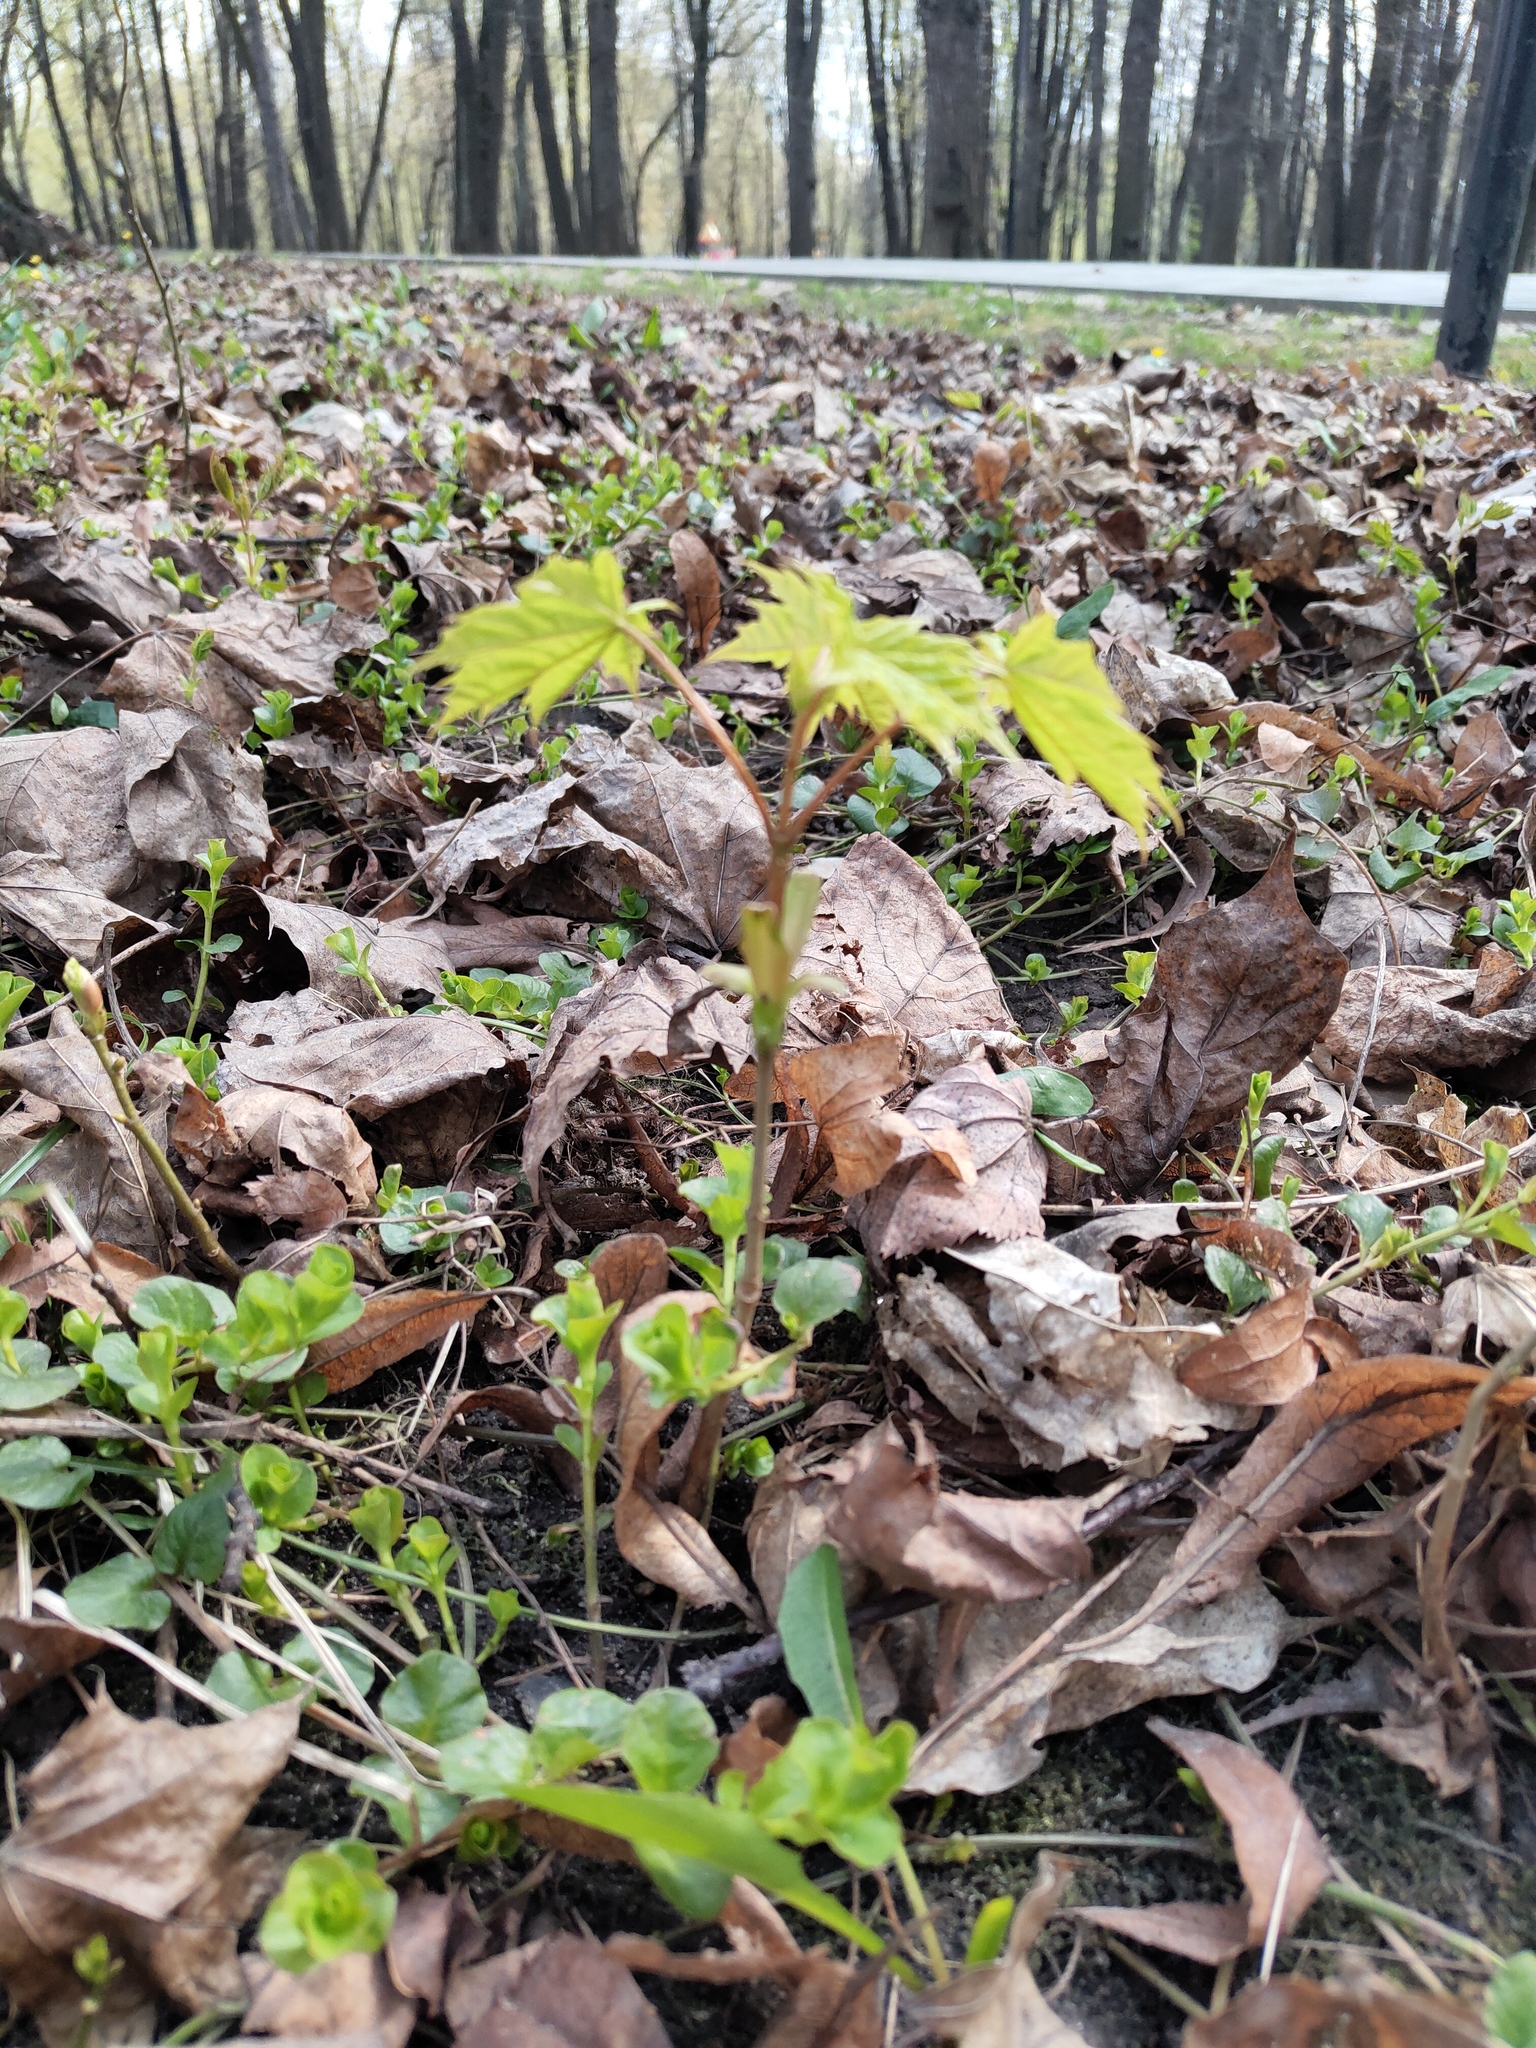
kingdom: Plantae
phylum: Tracheophyta
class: Magnoliopsida
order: Sapindales
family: Sapindaceae
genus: Acer
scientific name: Acer platanoides
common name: Norway maple
